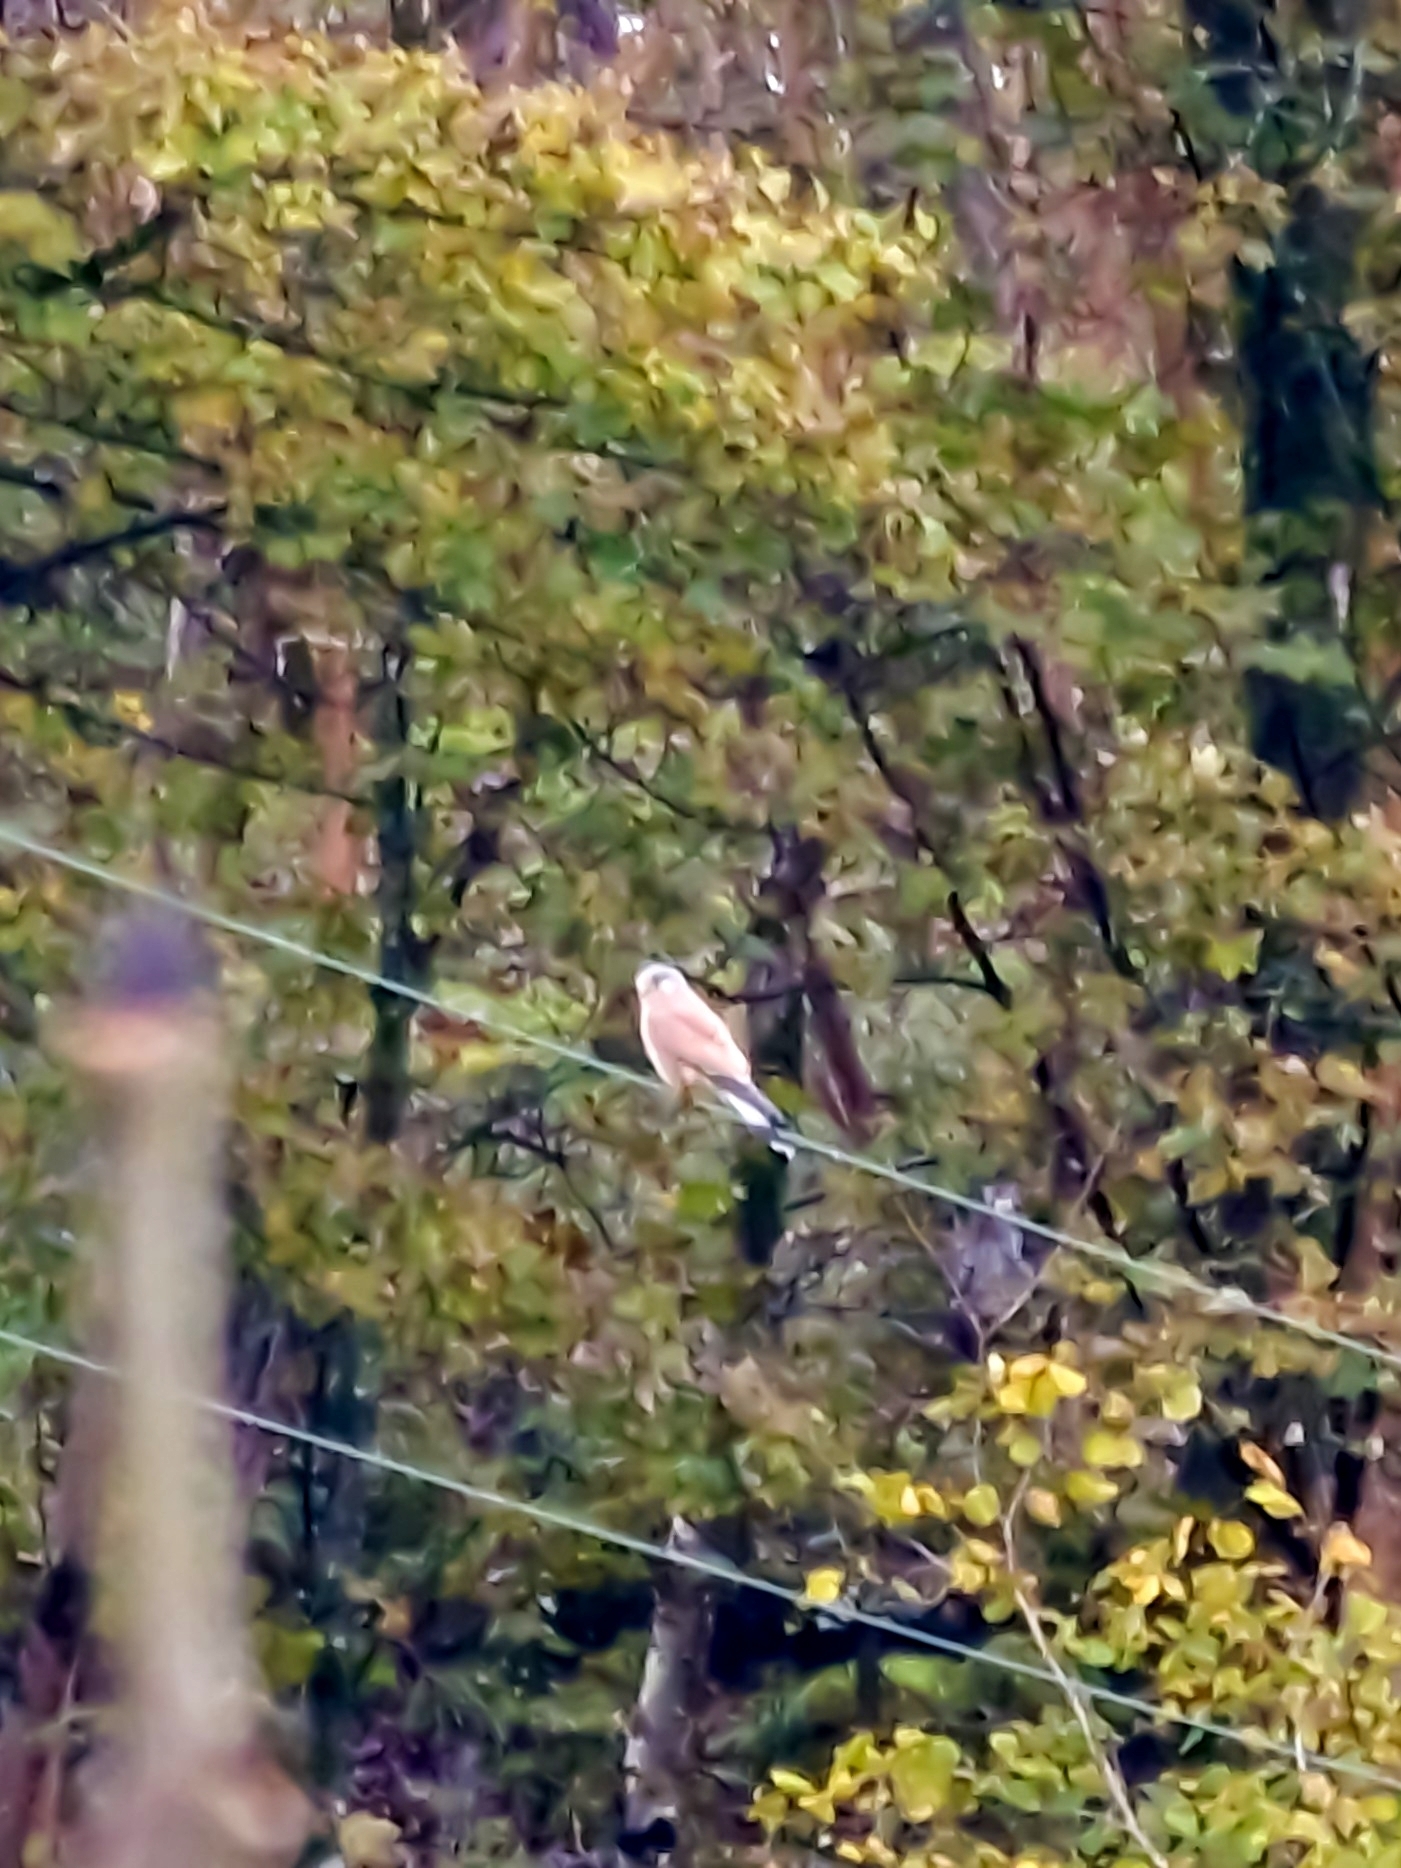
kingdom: Animalia
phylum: Chordata
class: Aves
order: Falconiformes
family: Falconidae
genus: Falco
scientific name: Falco tinnunculus
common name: Common kestrel
